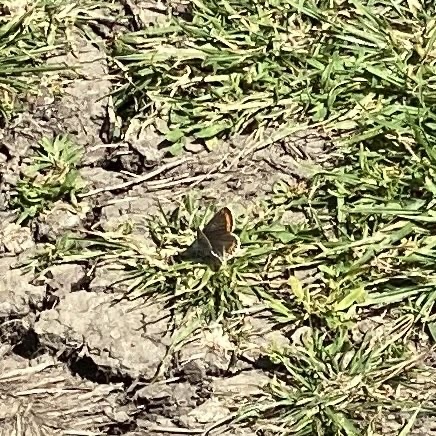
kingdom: Animalia
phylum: Arthropoda
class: Insecta
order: Lepidoptera
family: Lycaenidae
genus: Aricia
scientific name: Aricia agestis
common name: Brown argus
